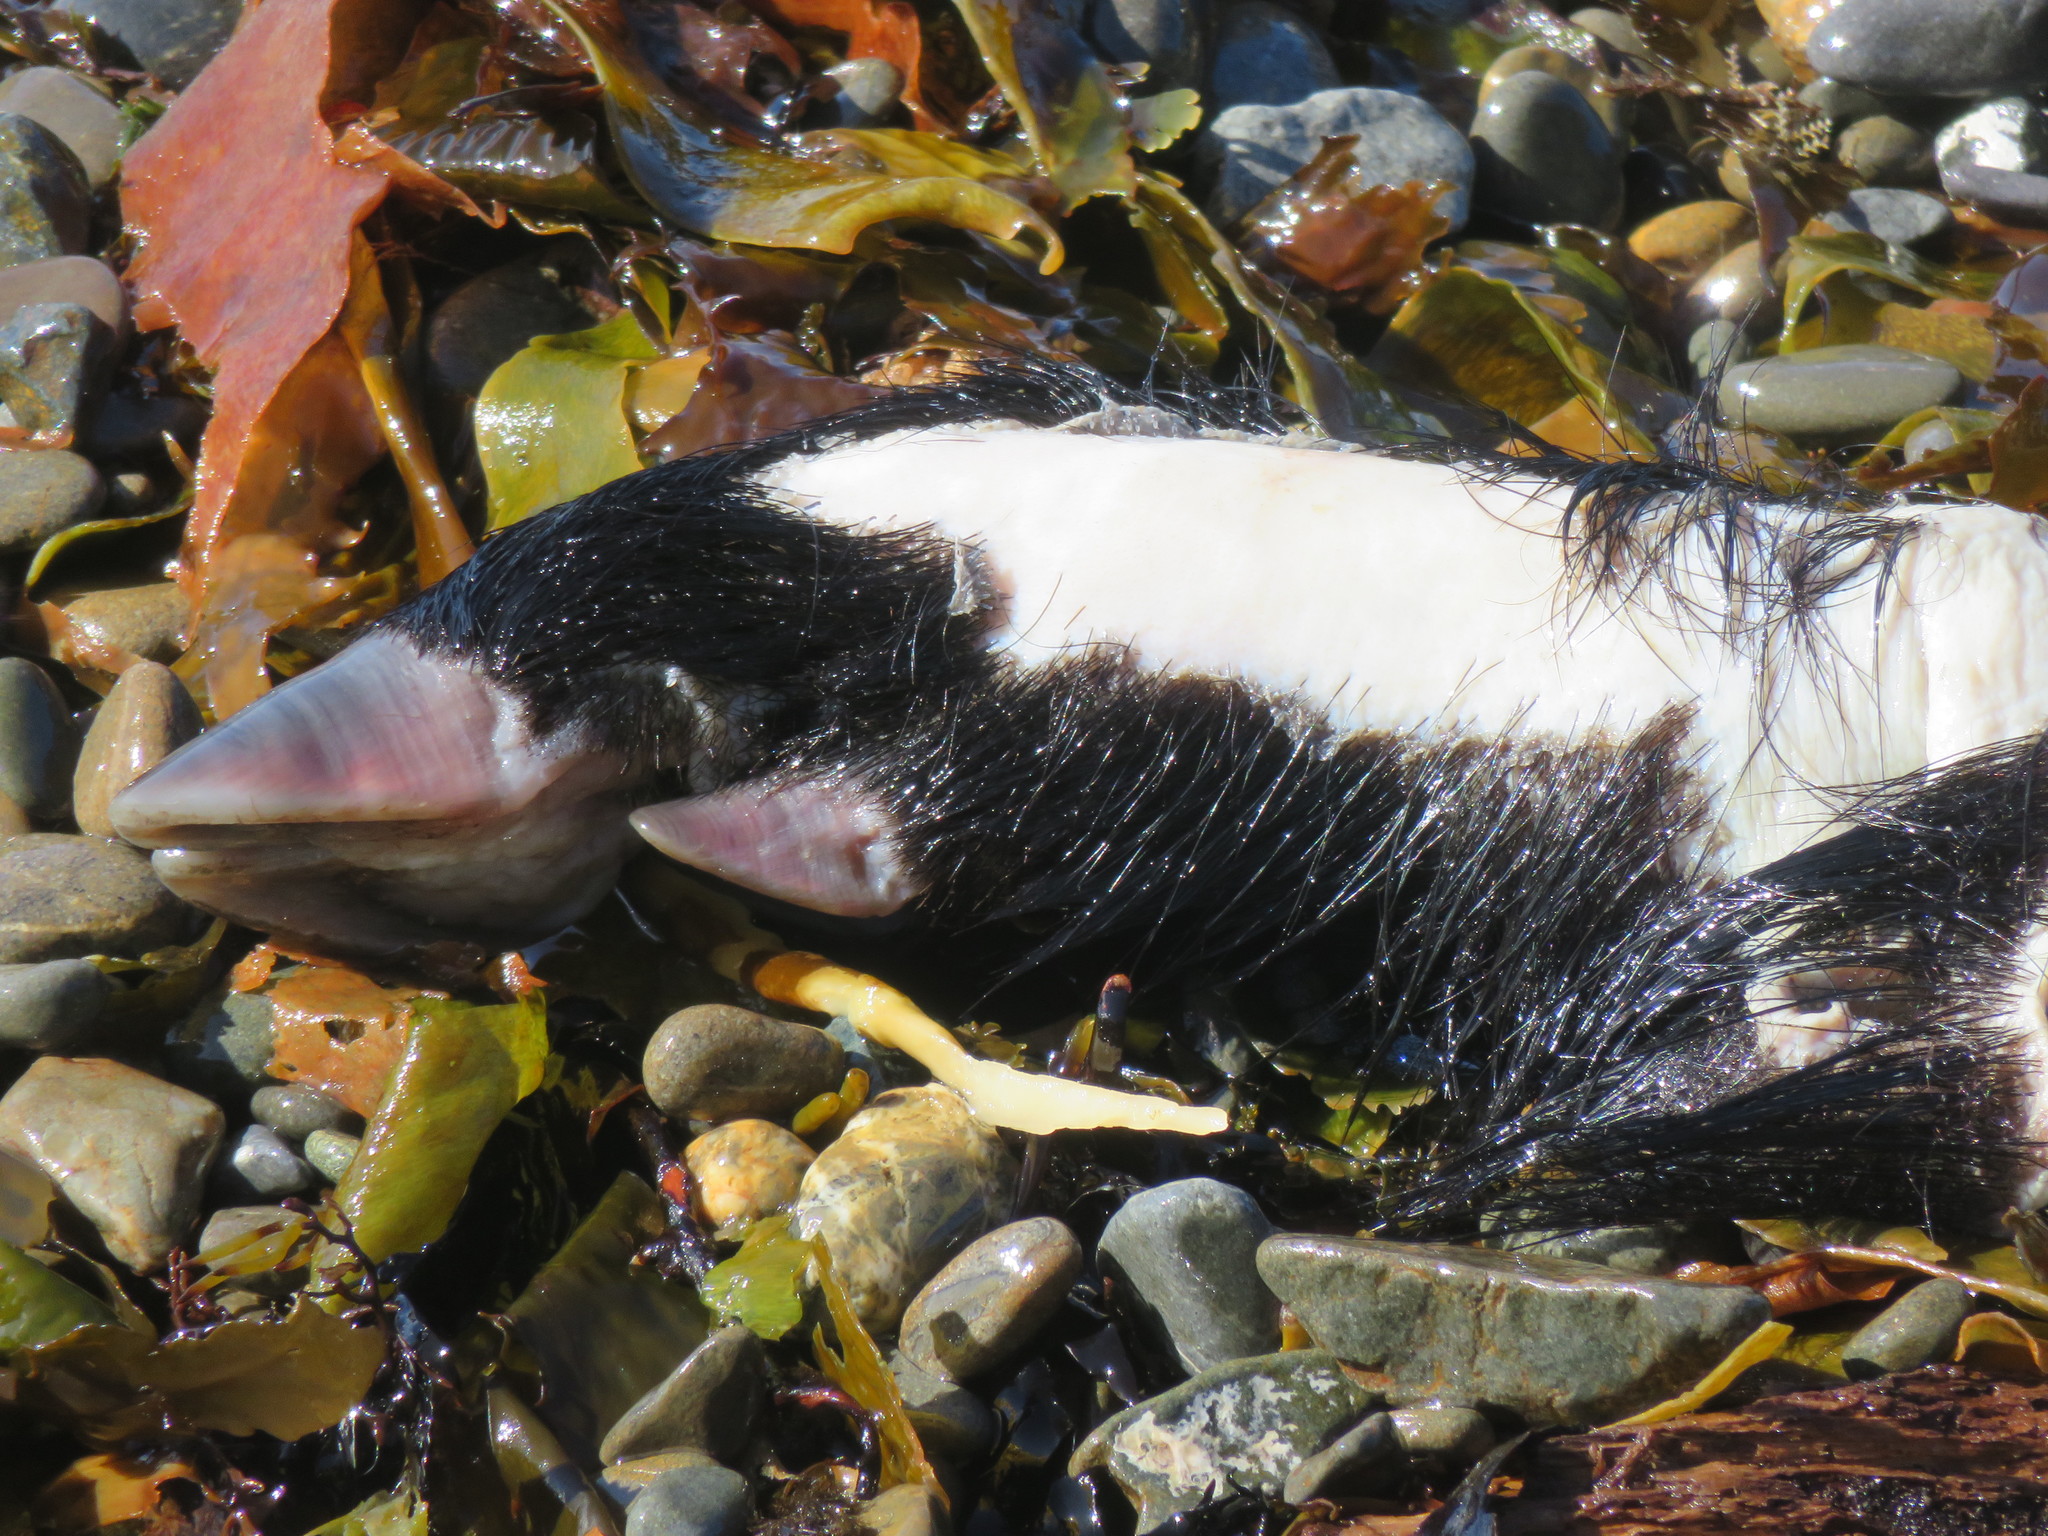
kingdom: Animalia
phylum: Chordata
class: Mammalia
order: Artiodactyla
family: Suidae
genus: Sus
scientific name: Sus scrofa
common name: Wild boar
